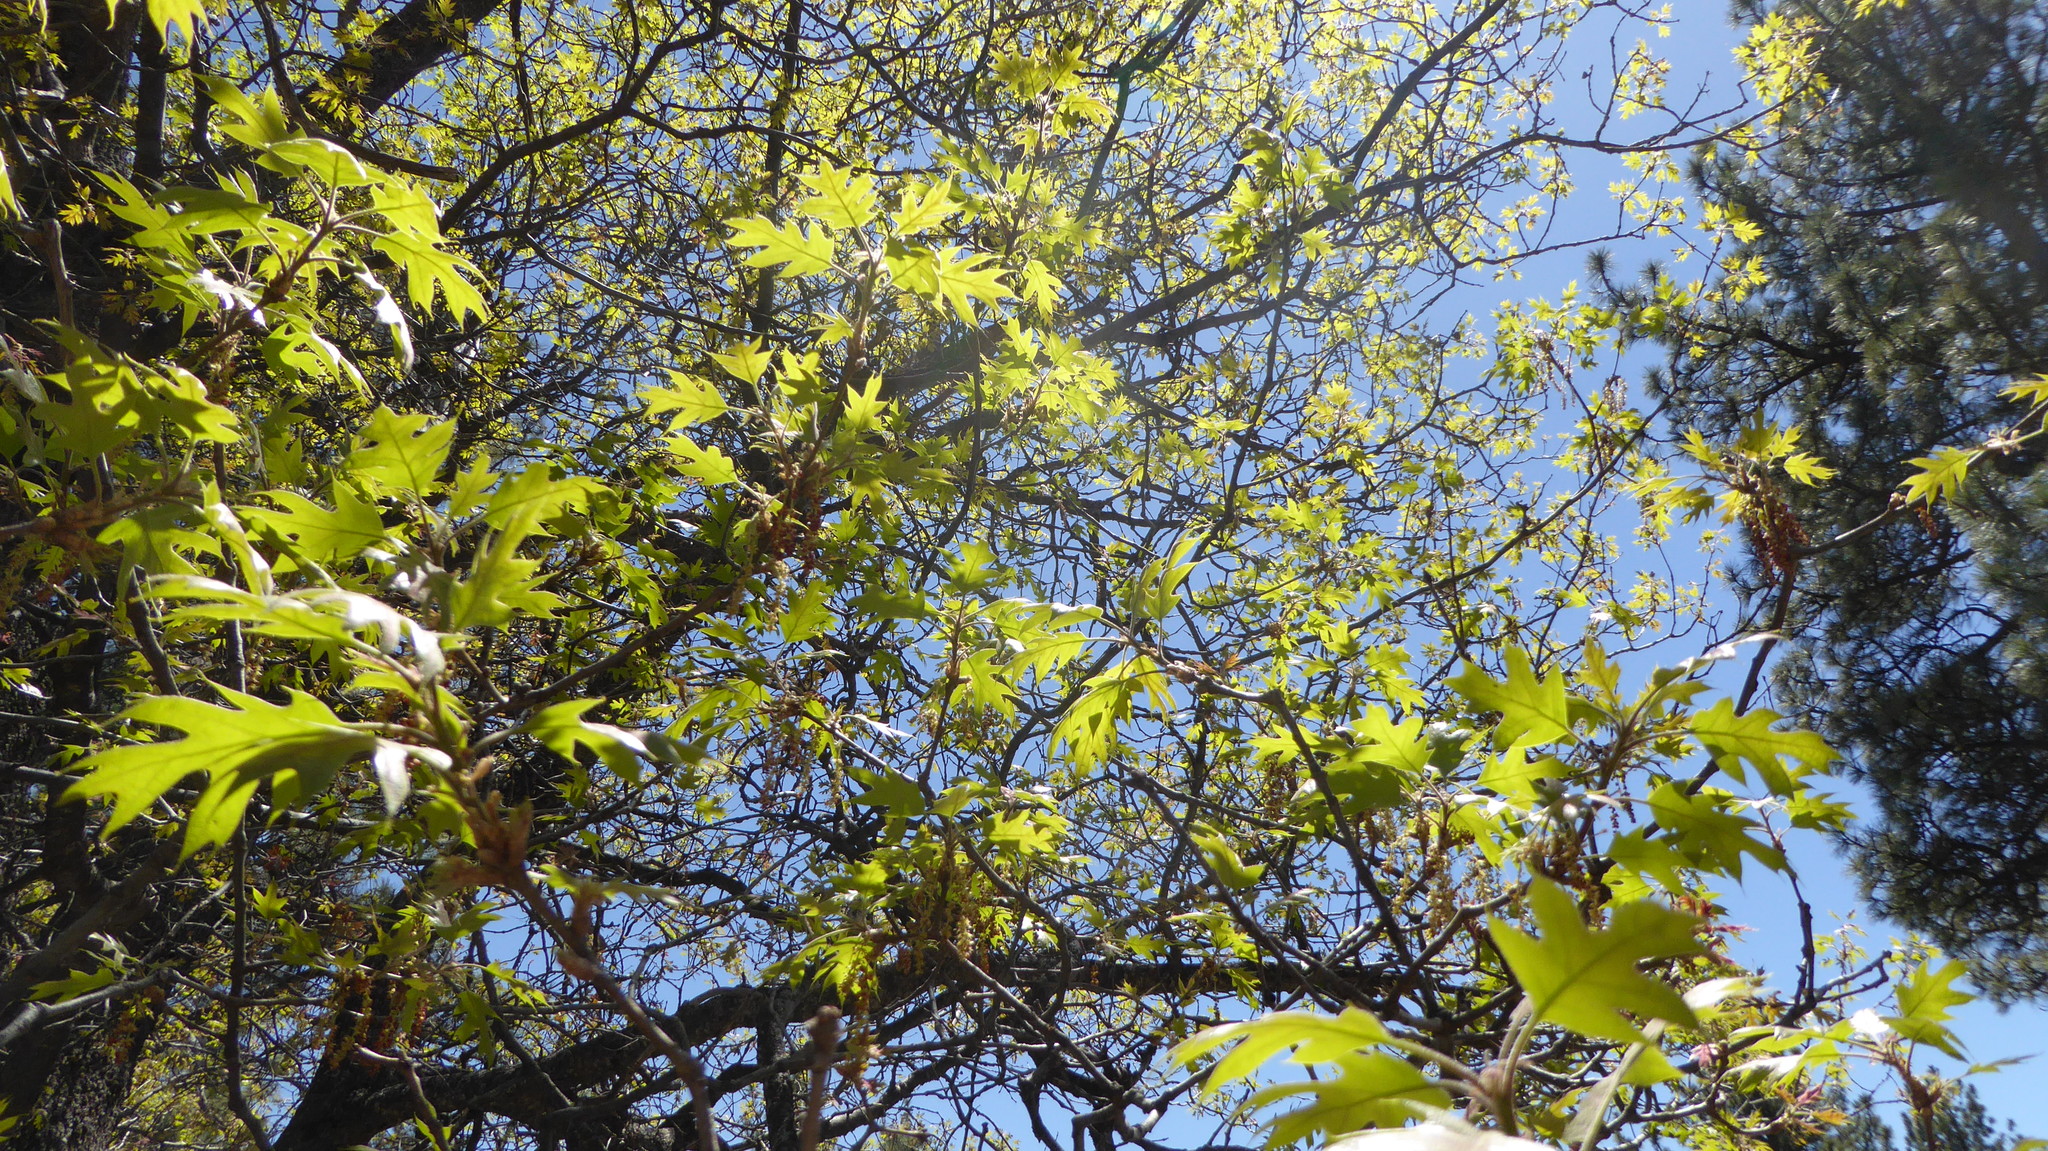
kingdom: Plantae
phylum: Tracheophyta
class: Magnoliopsida
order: Fagales
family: Fagaceae
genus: Quercus
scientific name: Quercus kelloggii
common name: California black oak
